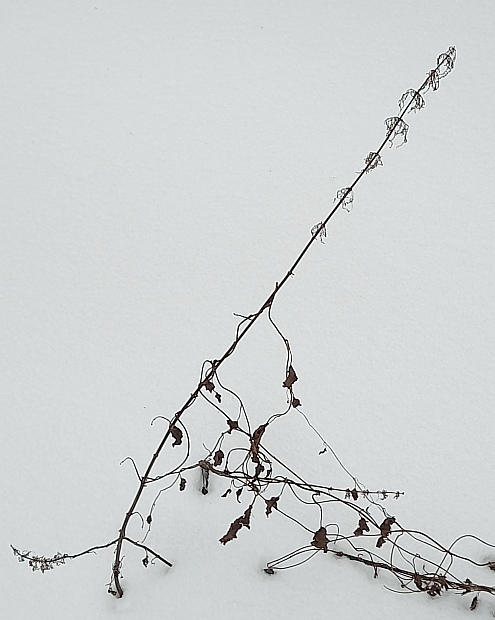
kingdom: Plantae
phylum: Tracheophyta
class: Magnoliopsida
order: Rosales
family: Urticaceae
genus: Urtica
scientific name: Urtica dioica
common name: Common nettle
